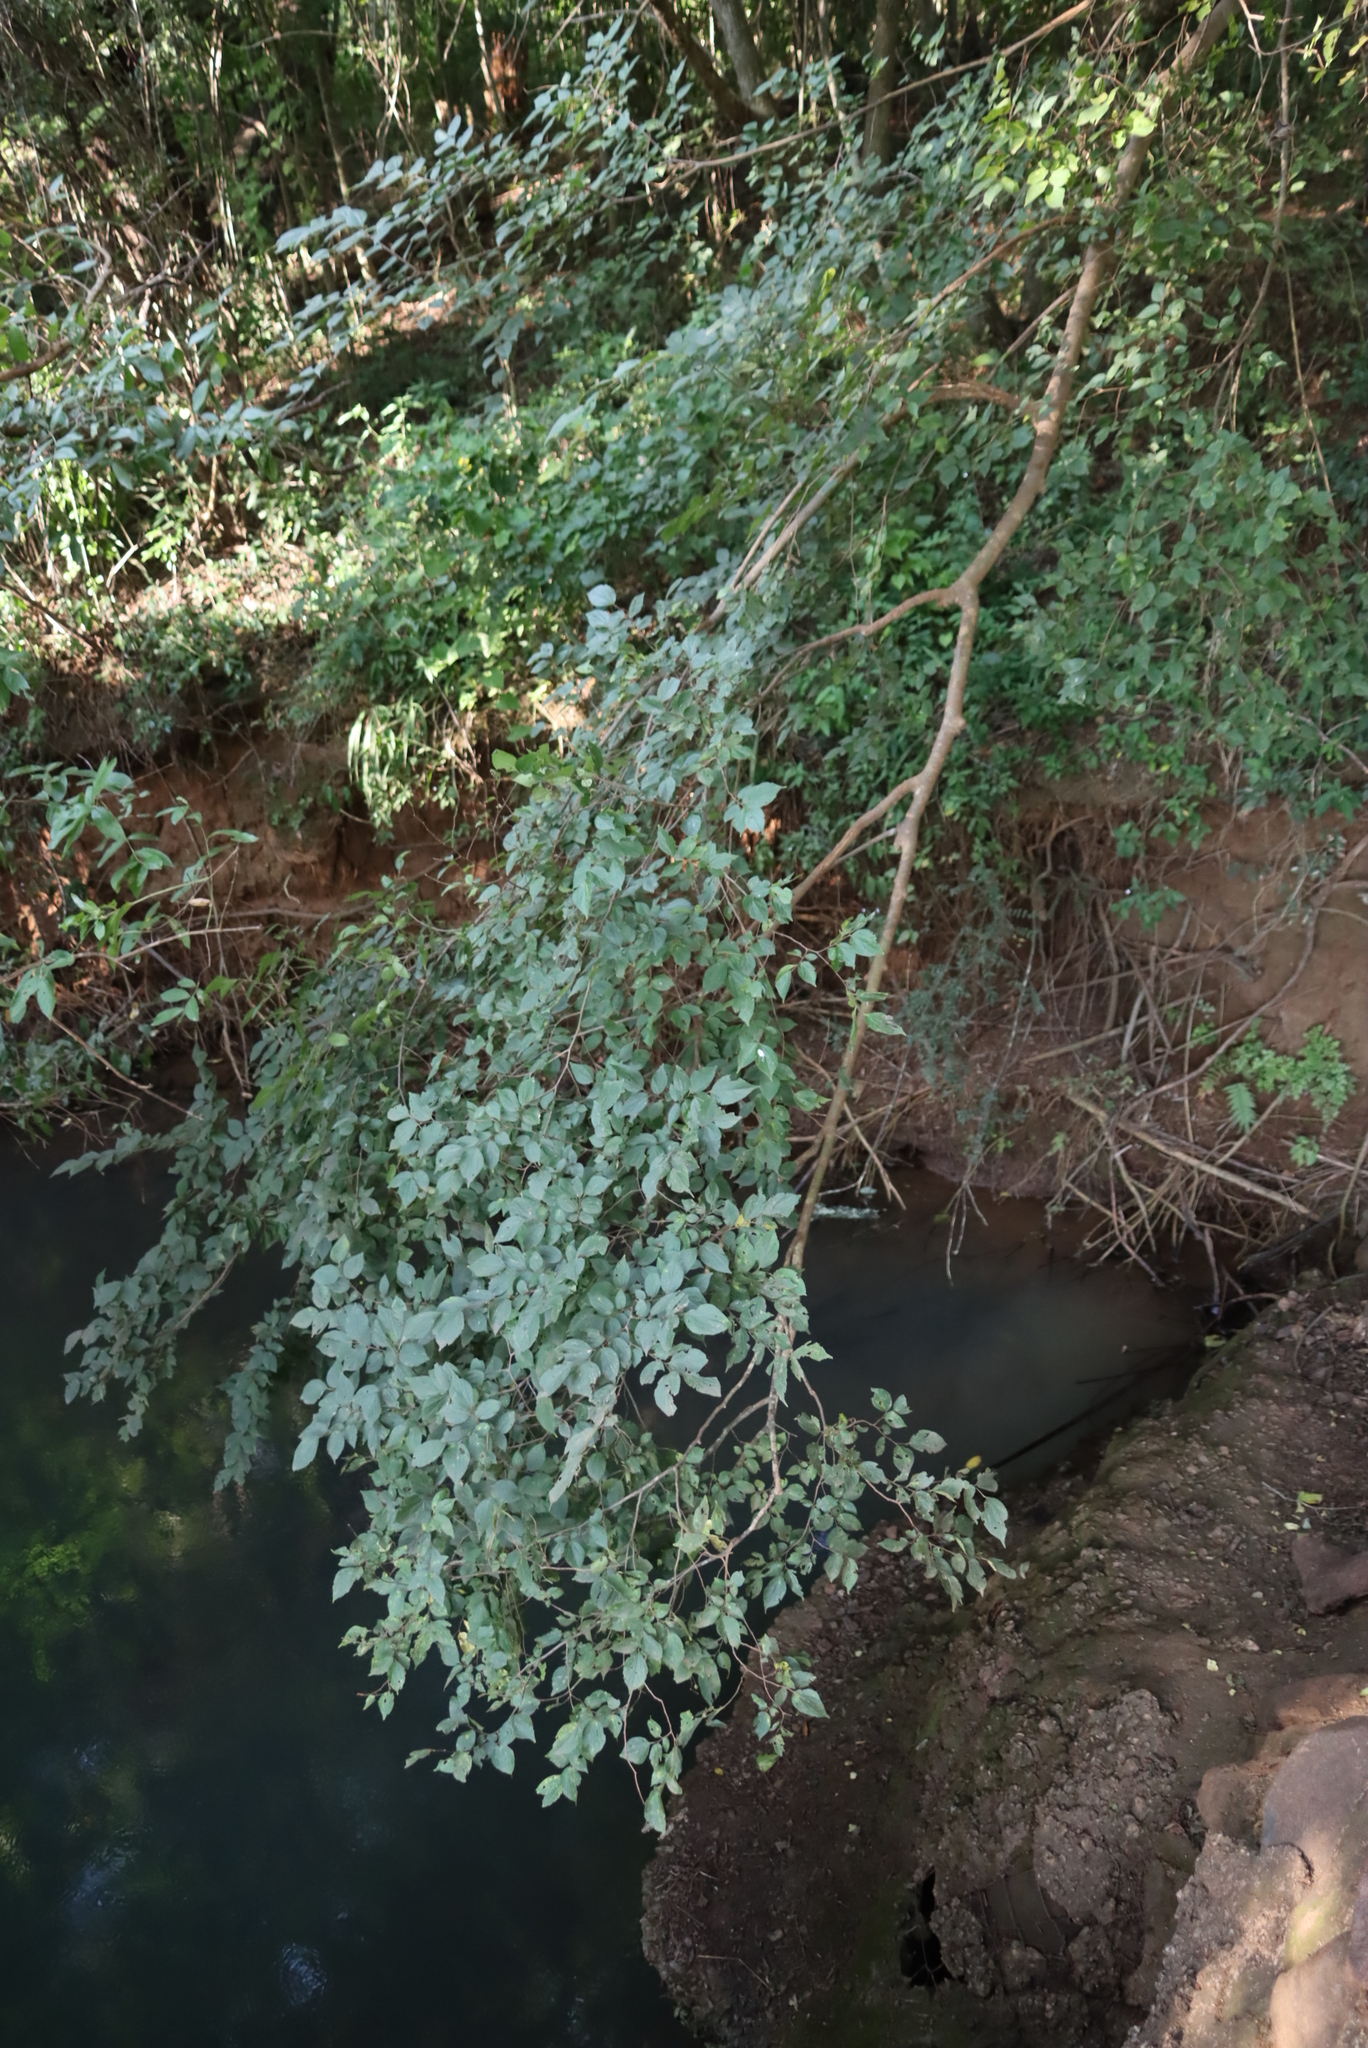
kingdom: Plantae
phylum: Tracheophyta
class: Magnoliopsida
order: Rosales
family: Cannabaceae
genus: Celtis
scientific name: Celtis africana
